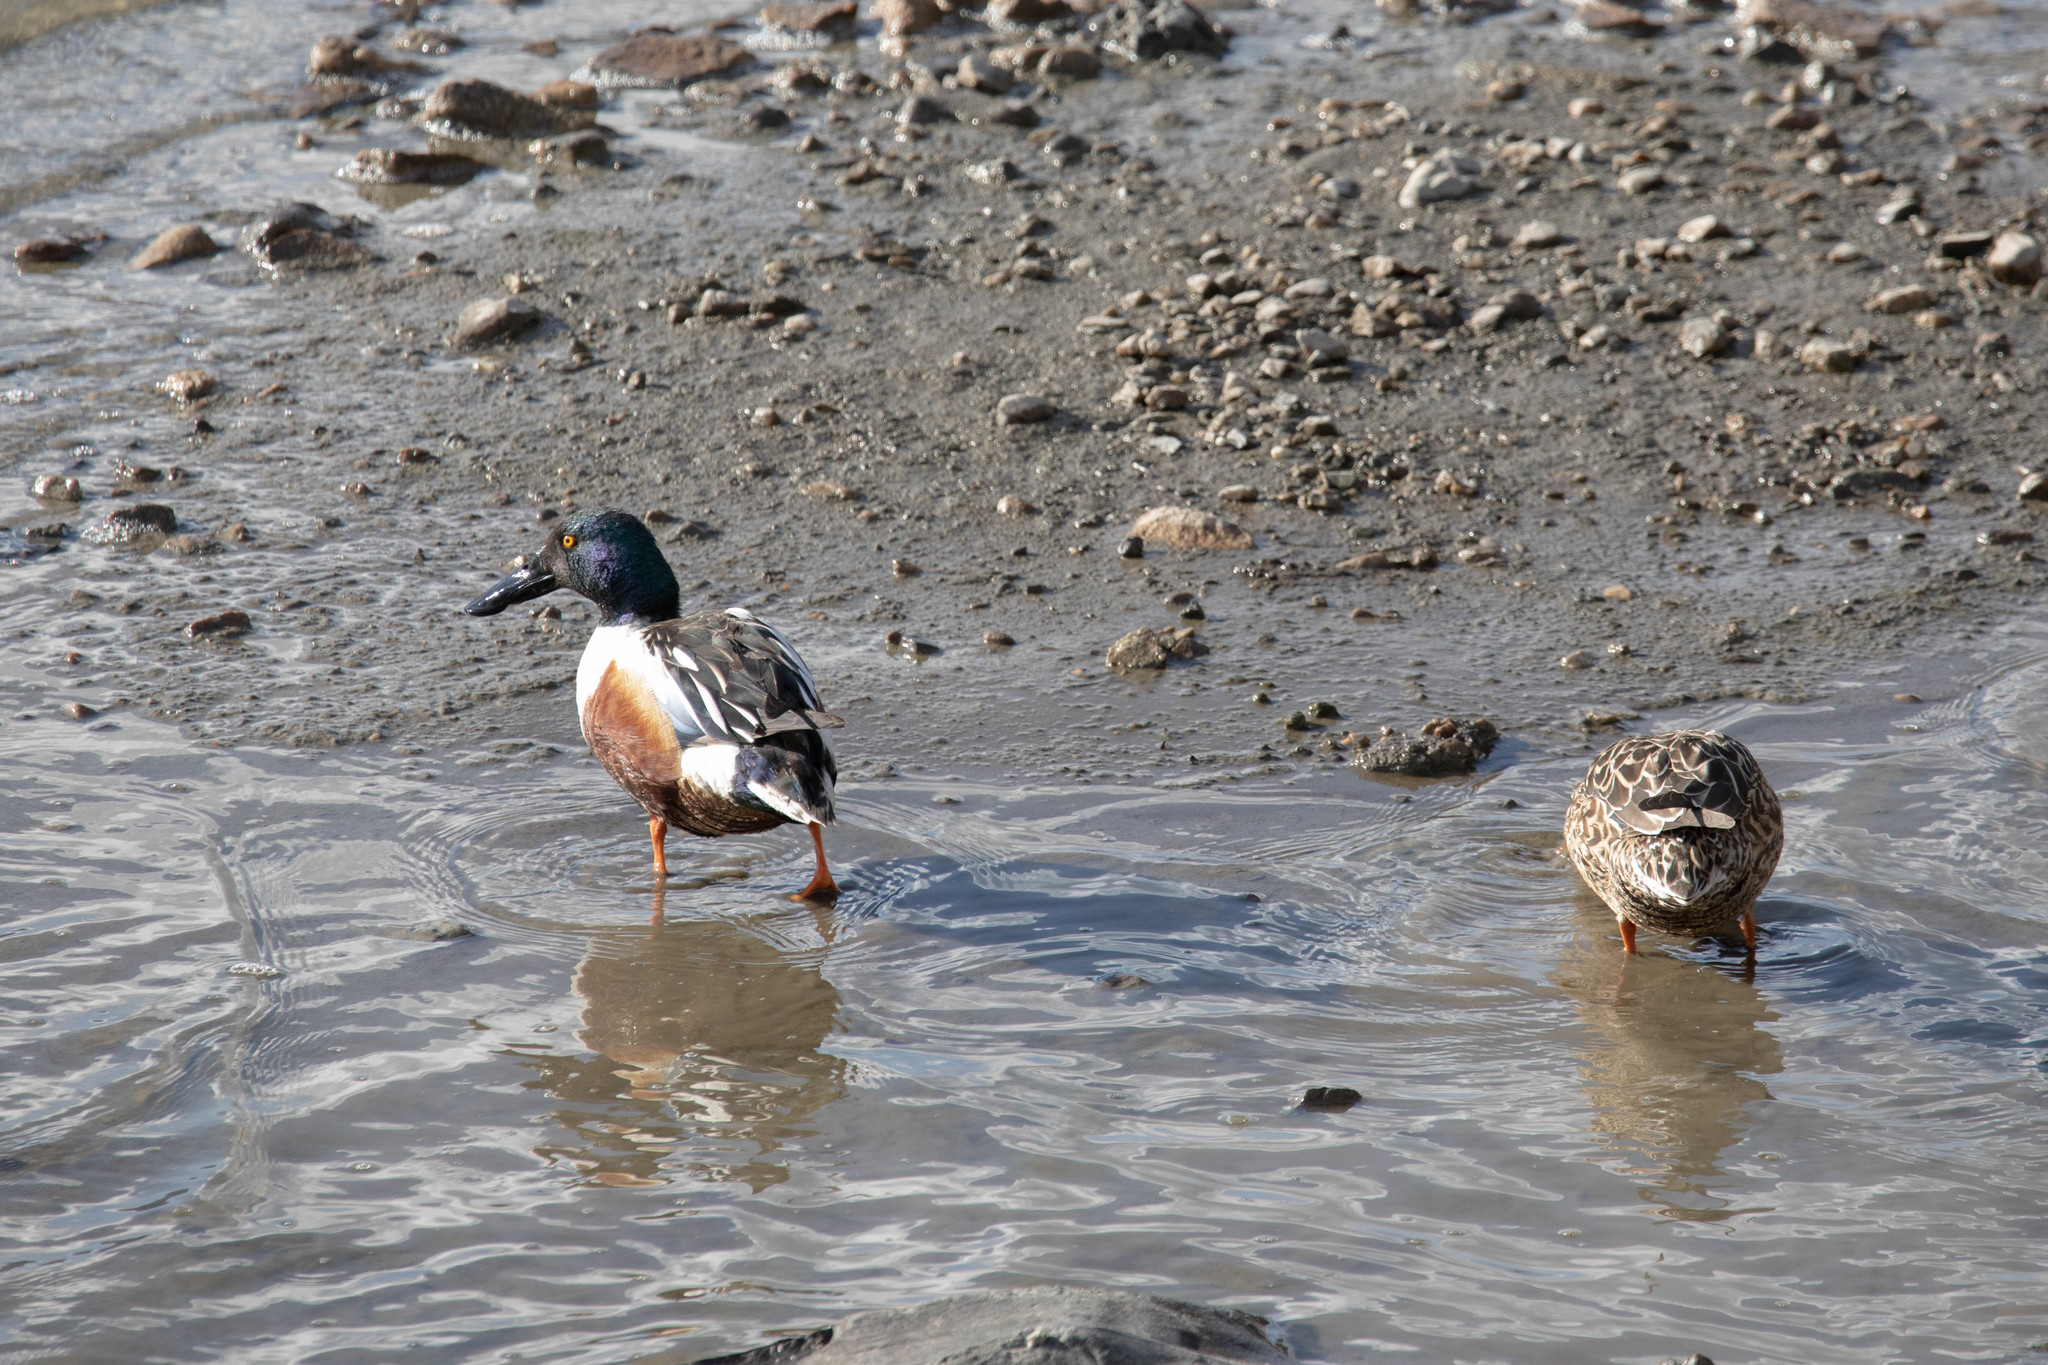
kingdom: Animalia
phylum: Chordata
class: Aves
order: Anseriformes
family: Anatidae
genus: Spatula
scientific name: Spatula clypeata
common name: Northern shoveler
